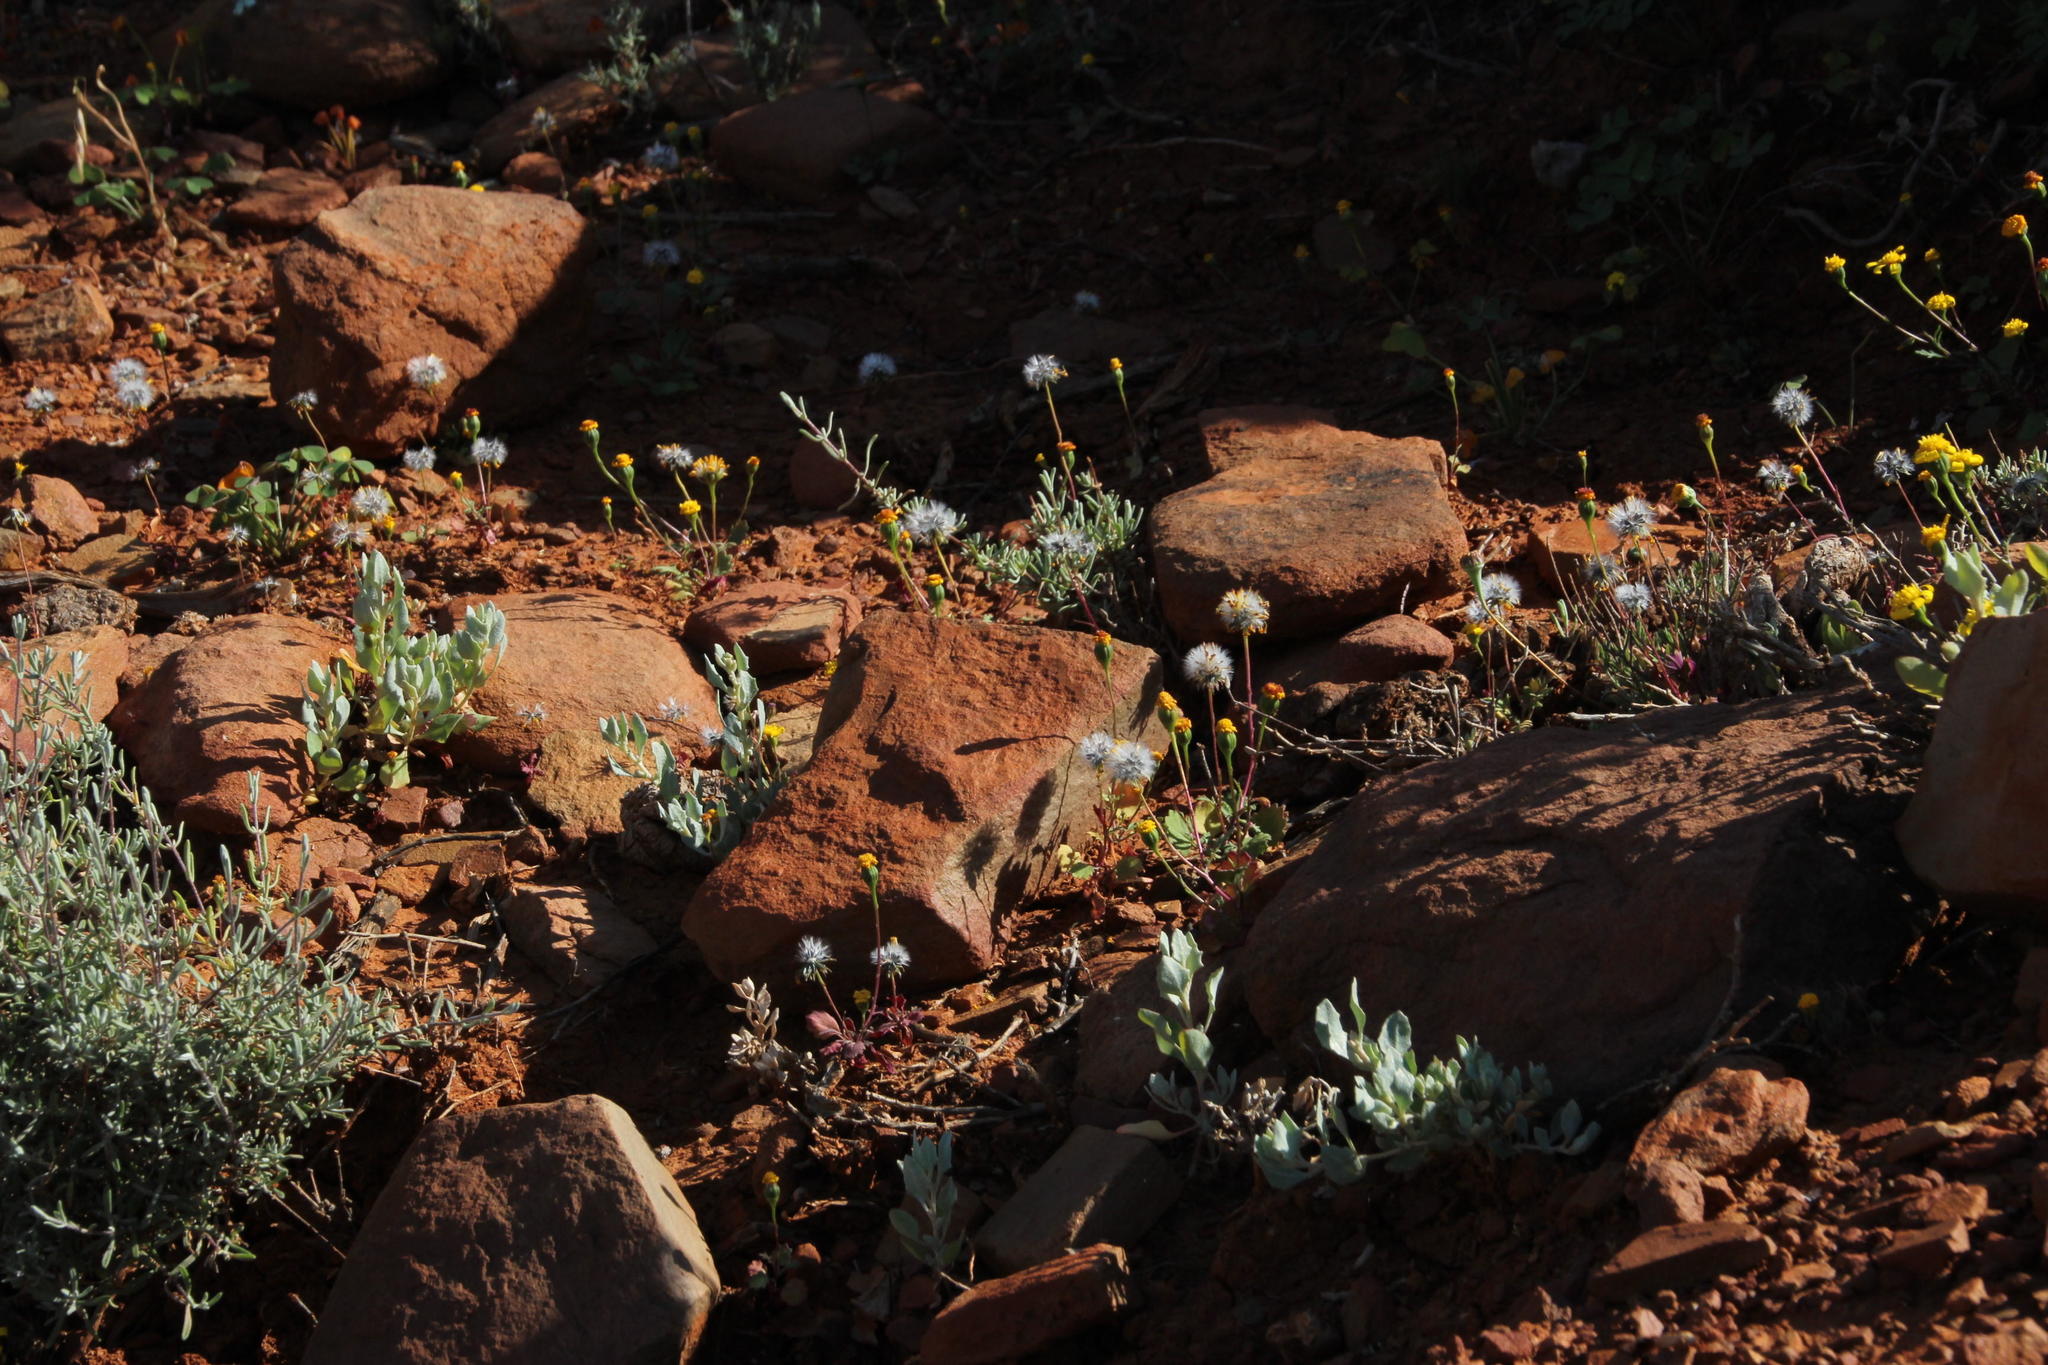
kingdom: Plantae
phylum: Tracheophyta
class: Magnoliopsida
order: Asterales
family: Asteraceae
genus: Stilpnogyne
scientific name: Stilpnogyne bellidioides
